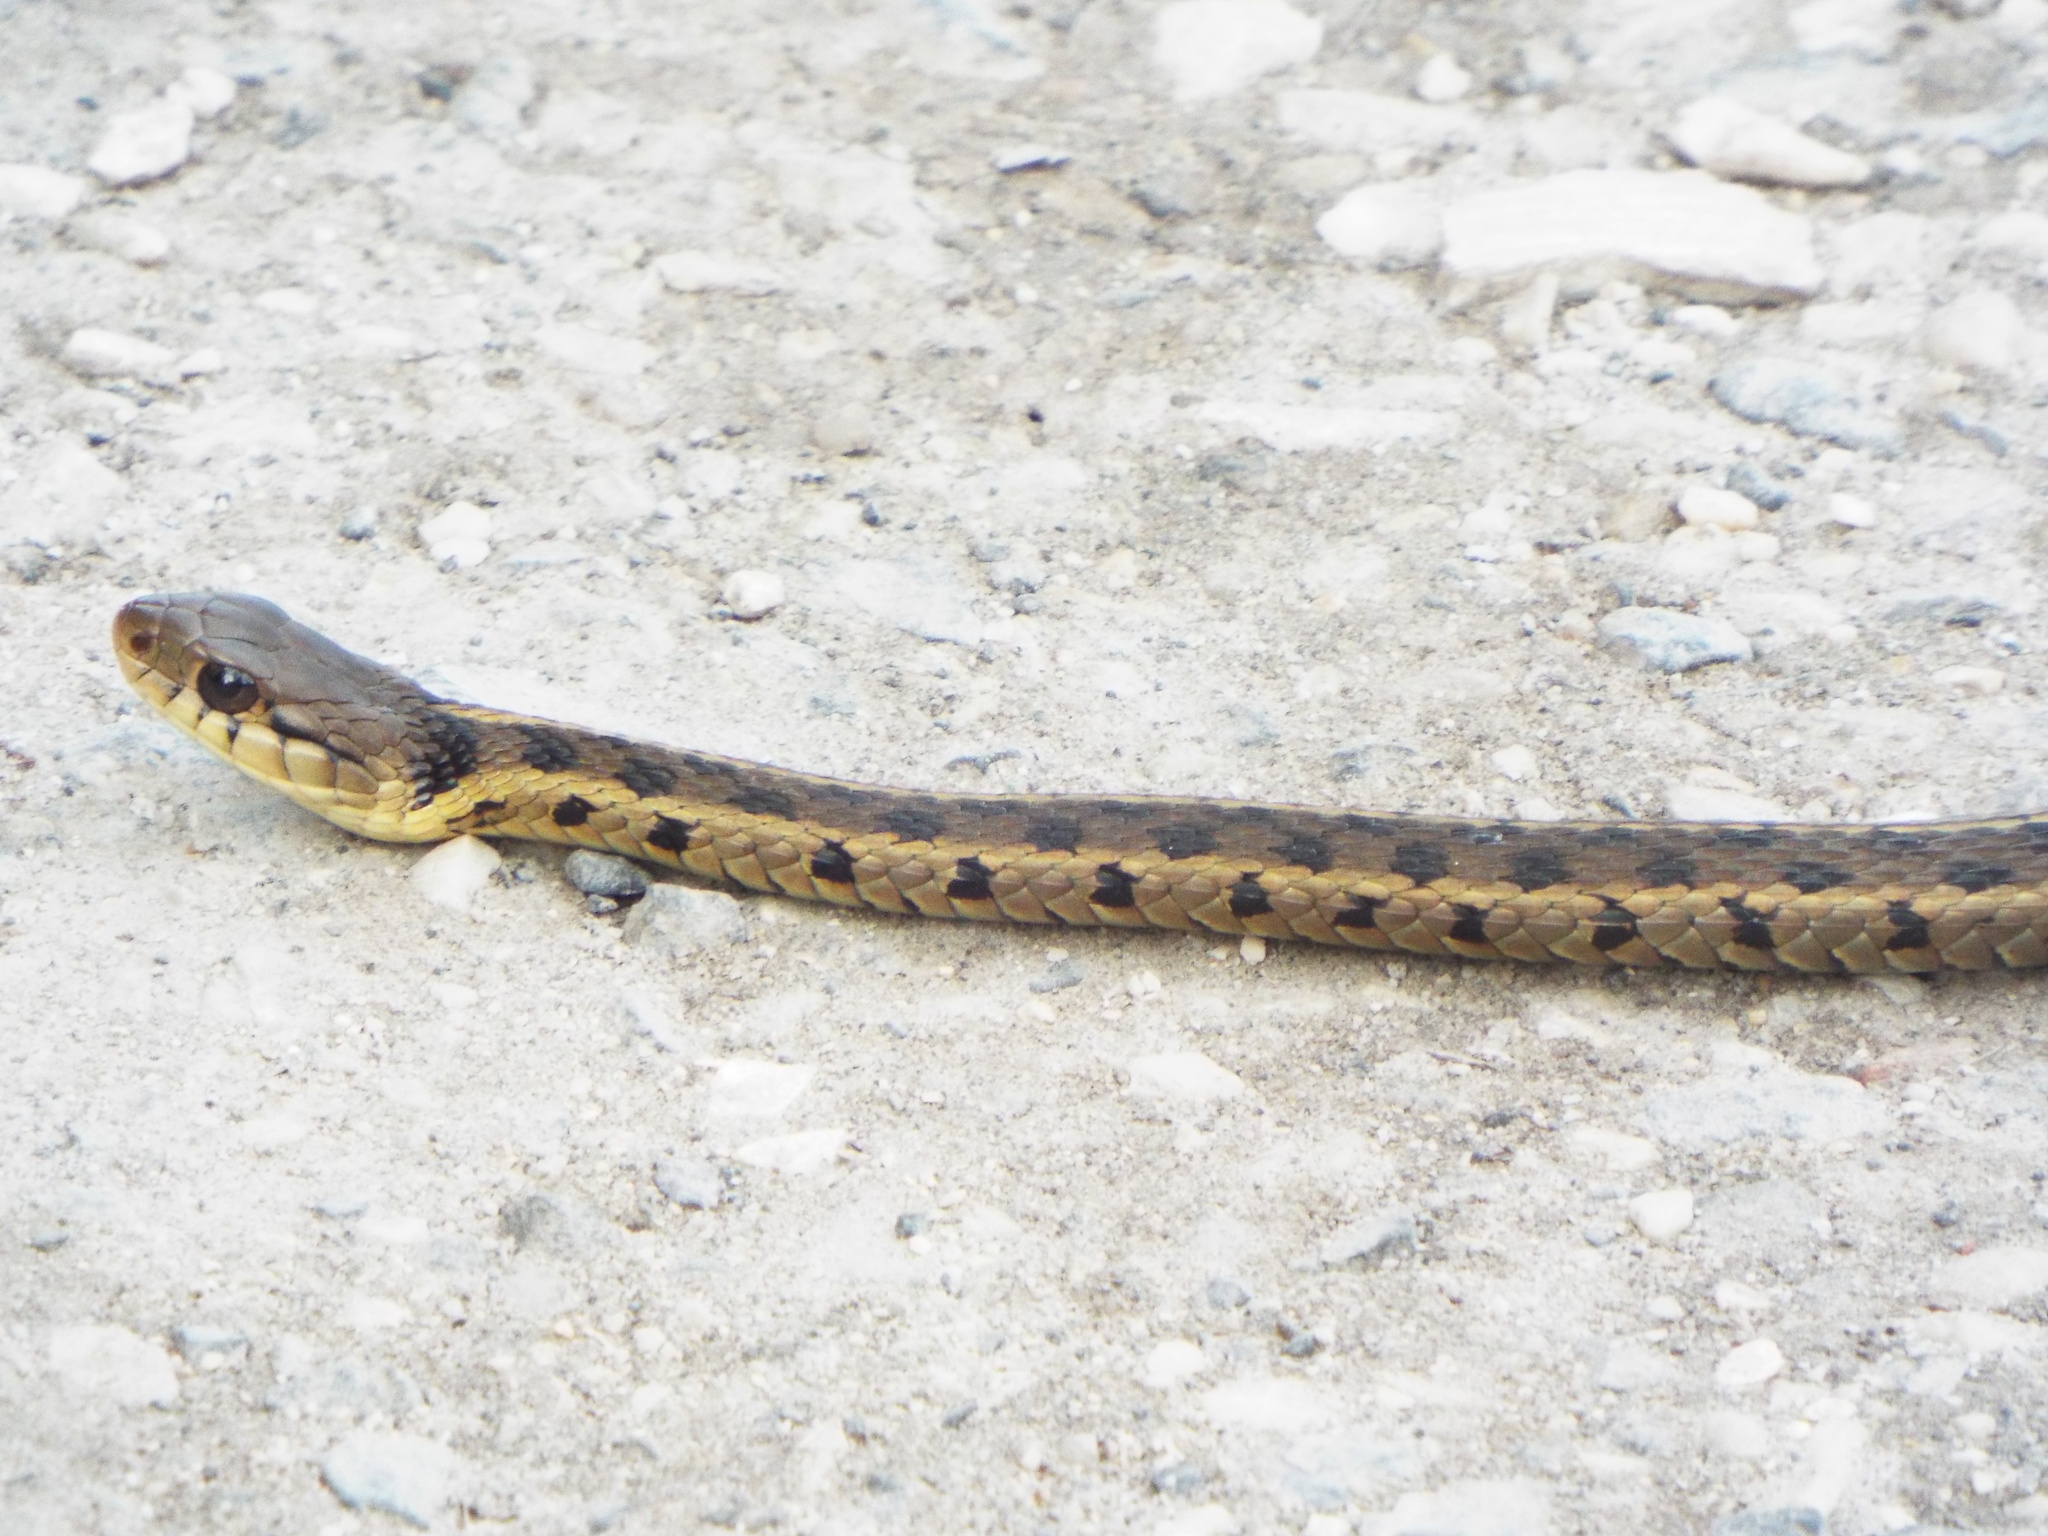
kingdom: Animalia
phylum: Chordata
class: Squamata
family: Colubridae
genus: Thamnophis
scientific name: Thamnophis sirtalis
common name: Common garter snake
